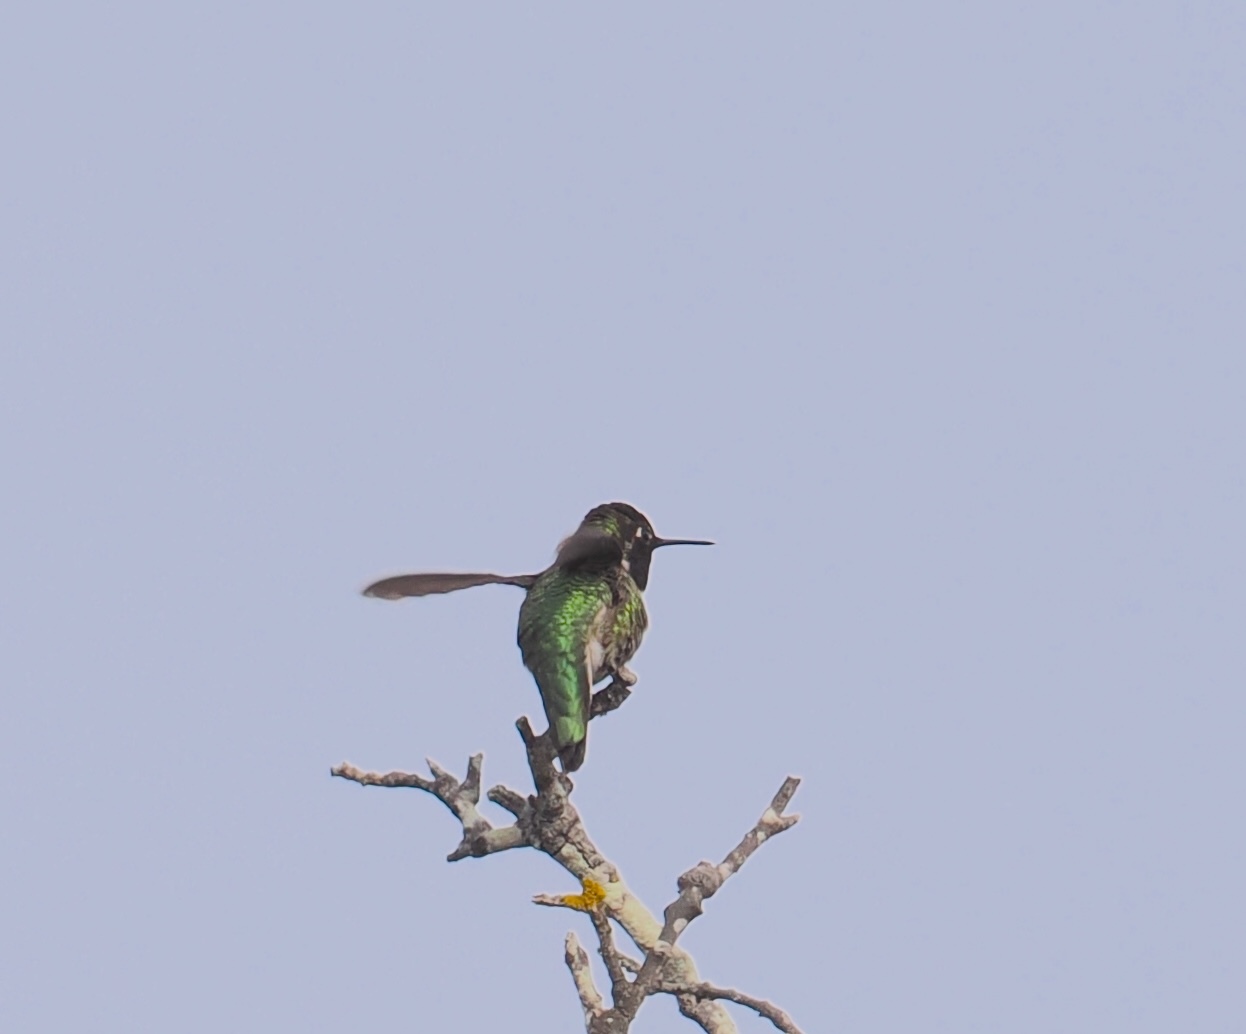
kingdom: Animalia
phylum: Chordata
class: Aves
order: Apodiformes
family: Trochilidae
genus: Calypte
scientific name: Calypte anna
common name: Anna's hummingbird
